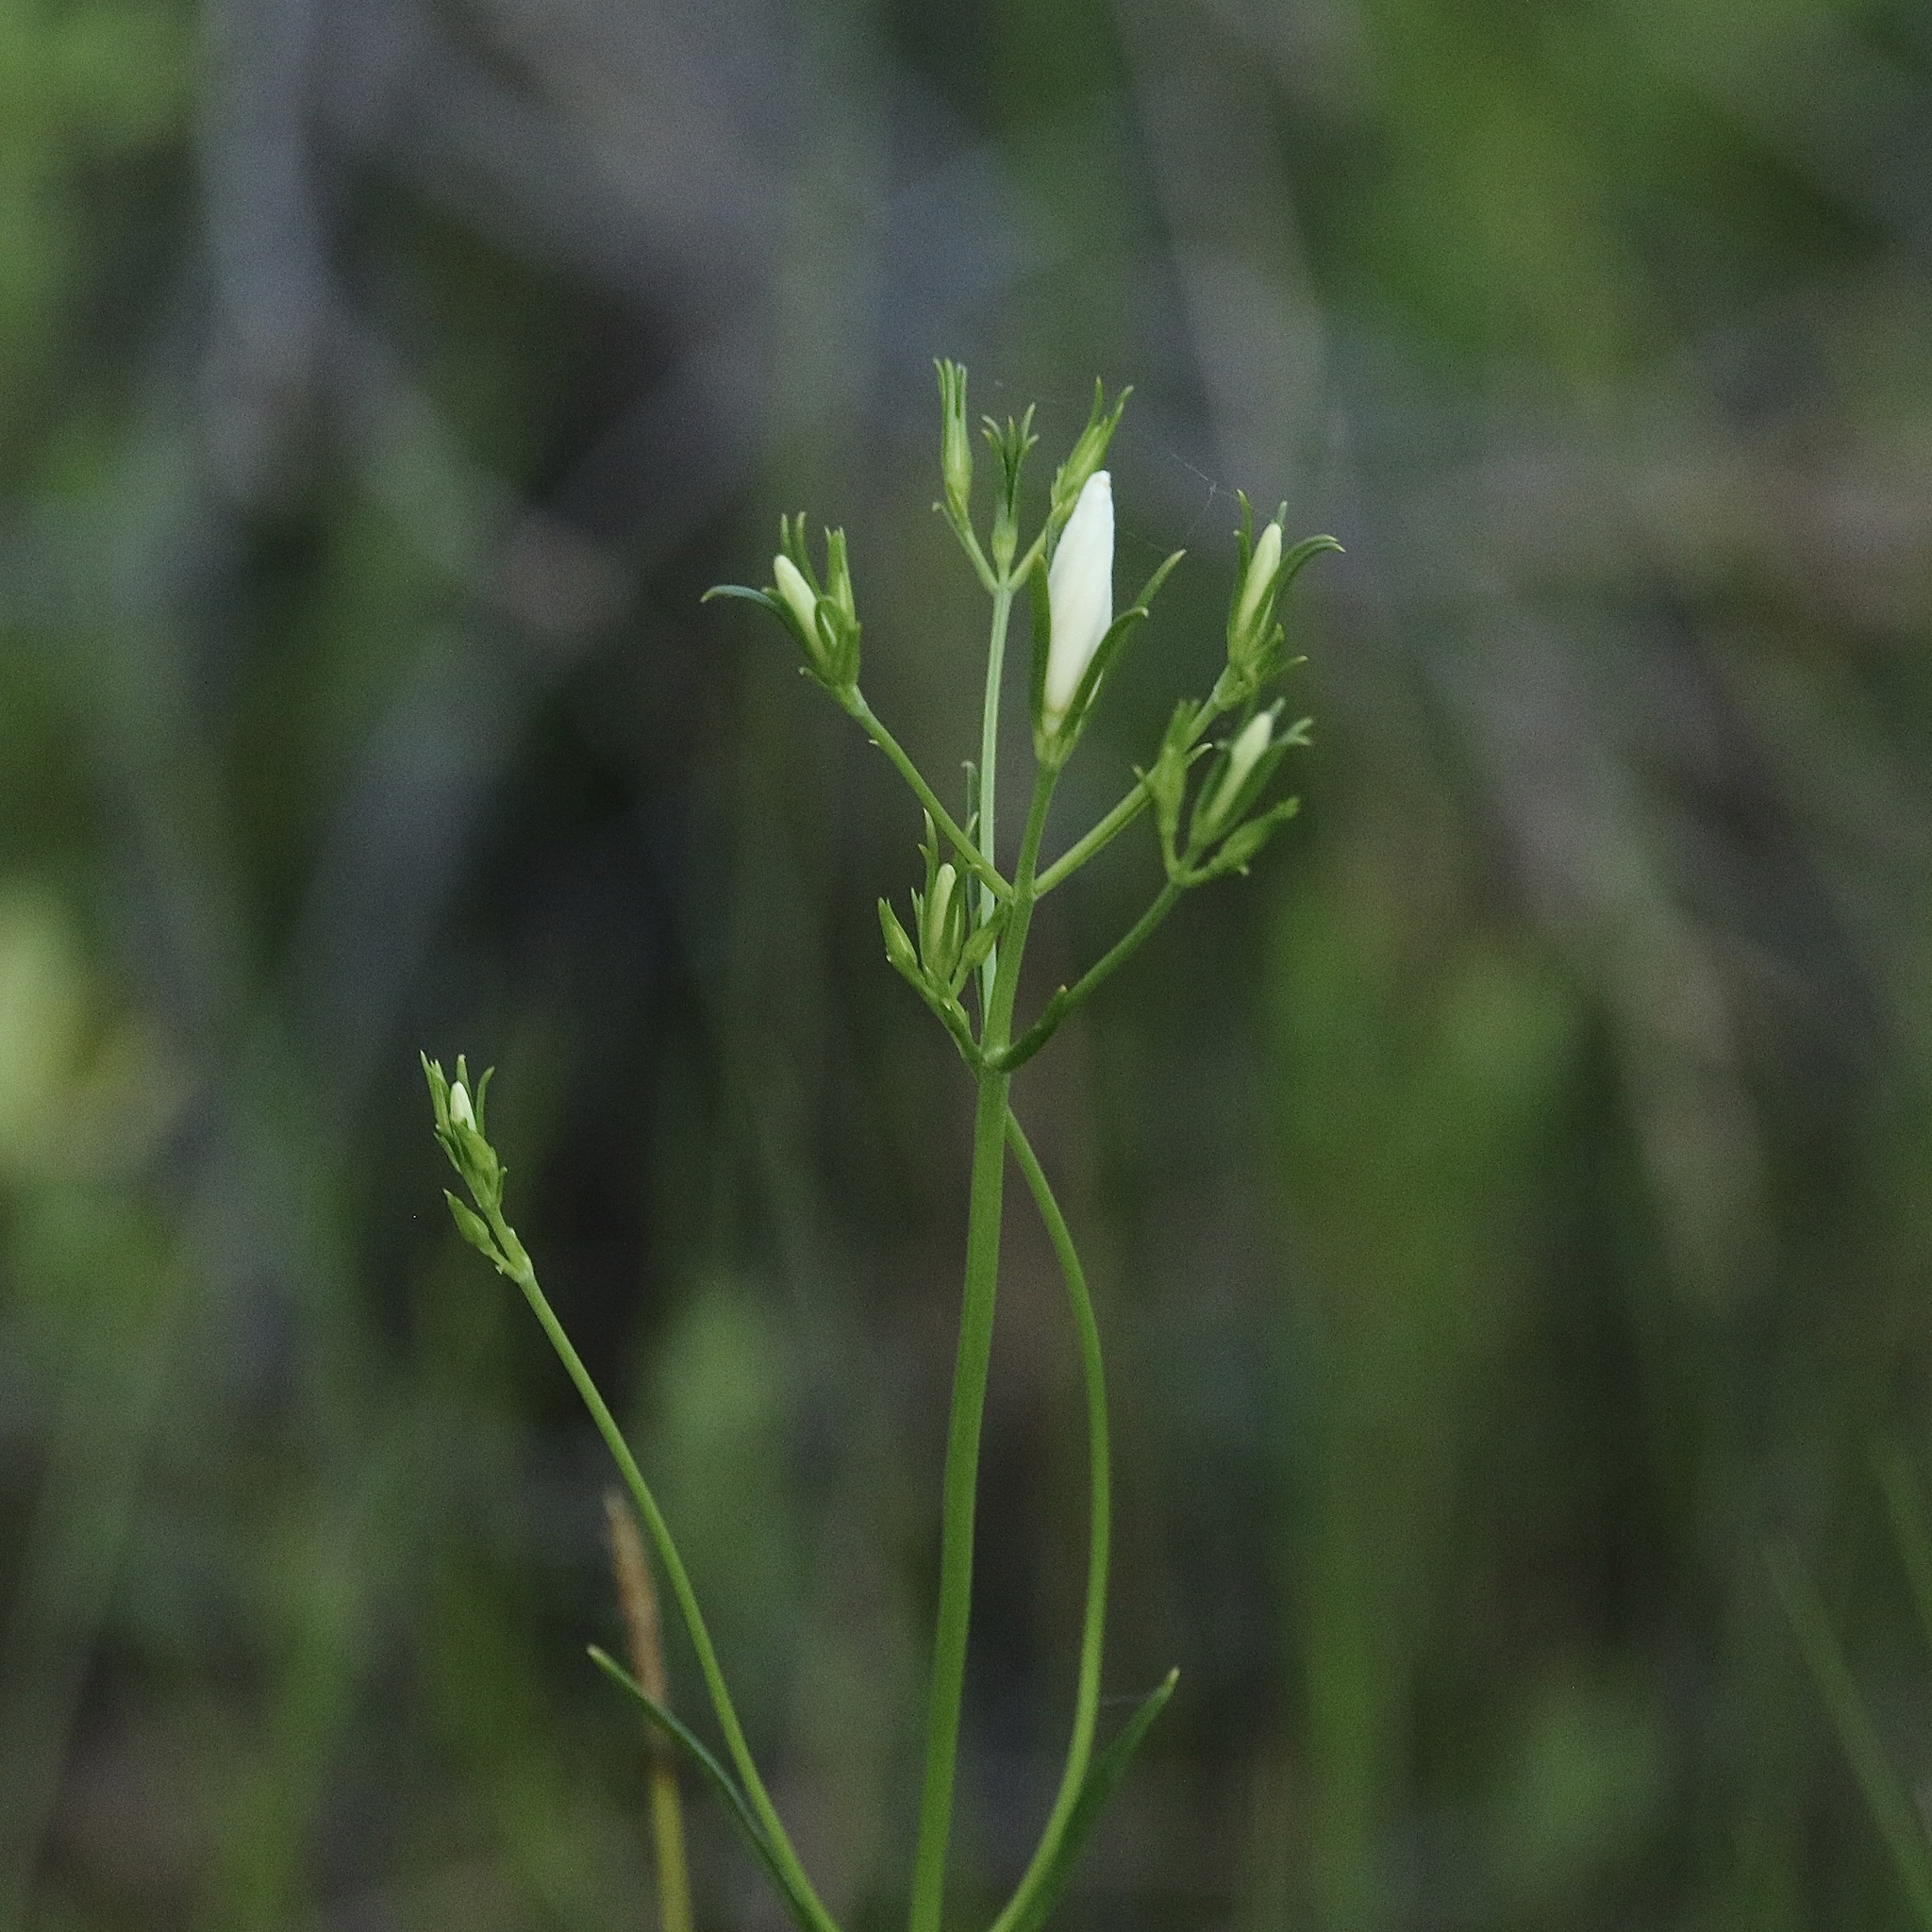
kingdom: Plantae
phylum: Tracheophyta
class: Magnoliopsida
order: Gentianales
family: Gentianaceae
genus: Sabatia
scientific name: Sabatia difformis
